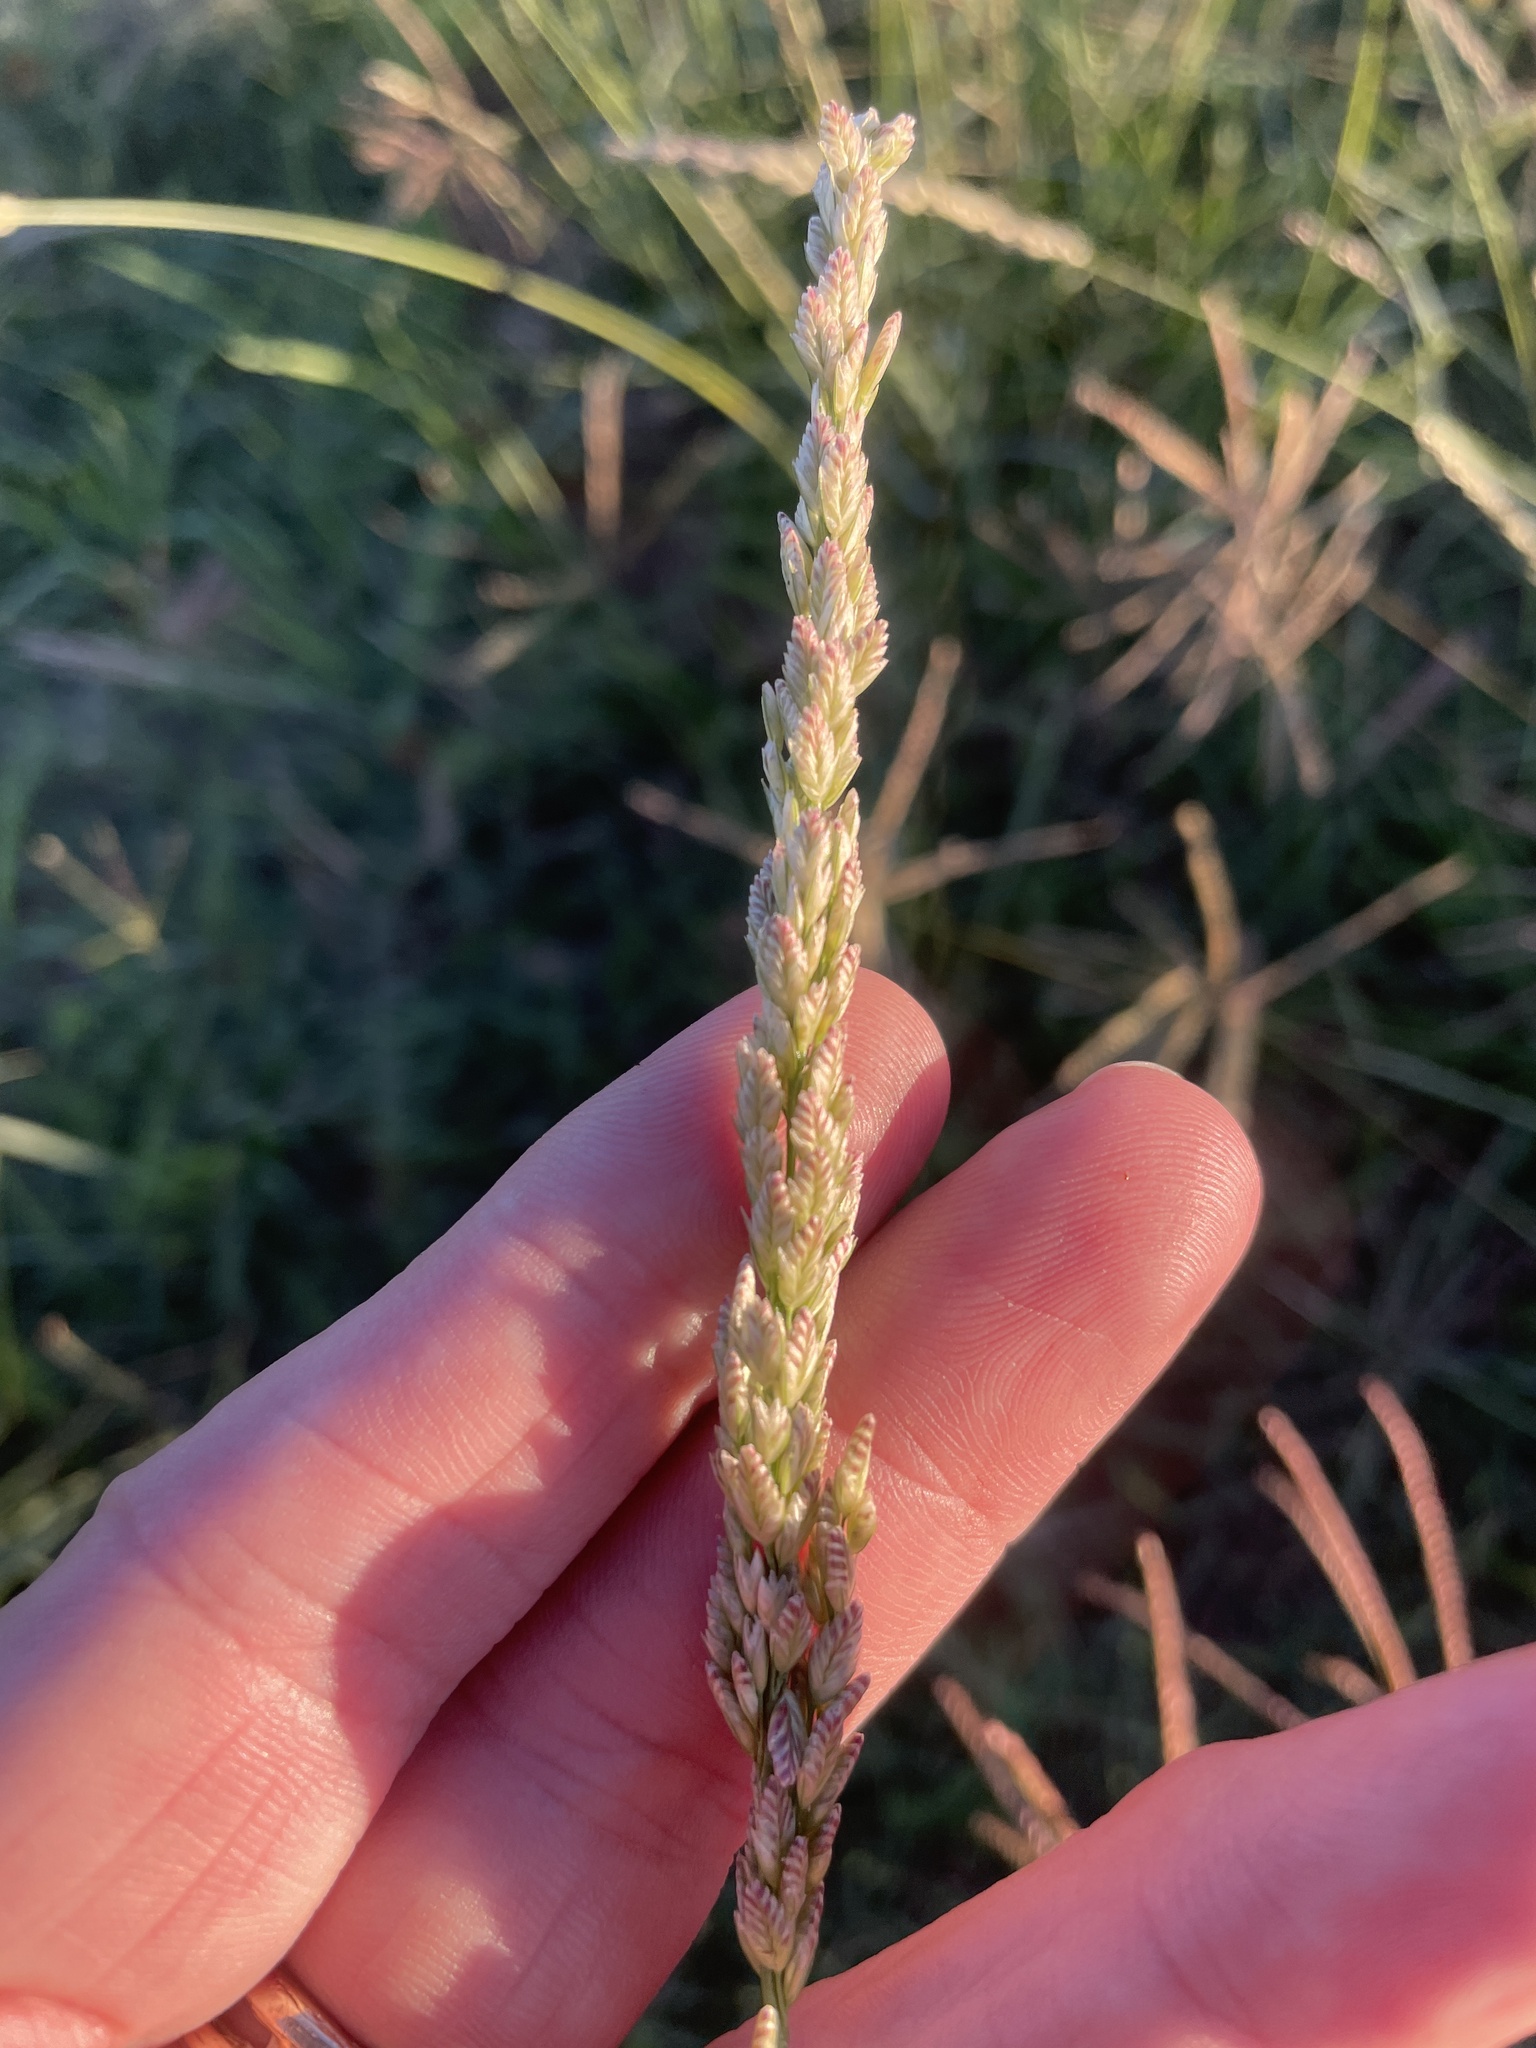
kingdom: Plantae
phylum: Tracheophyta
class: Liliopsida
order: Poales
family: Poaceae
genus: Tridens
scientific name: Tridens albescens
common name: White tridens
